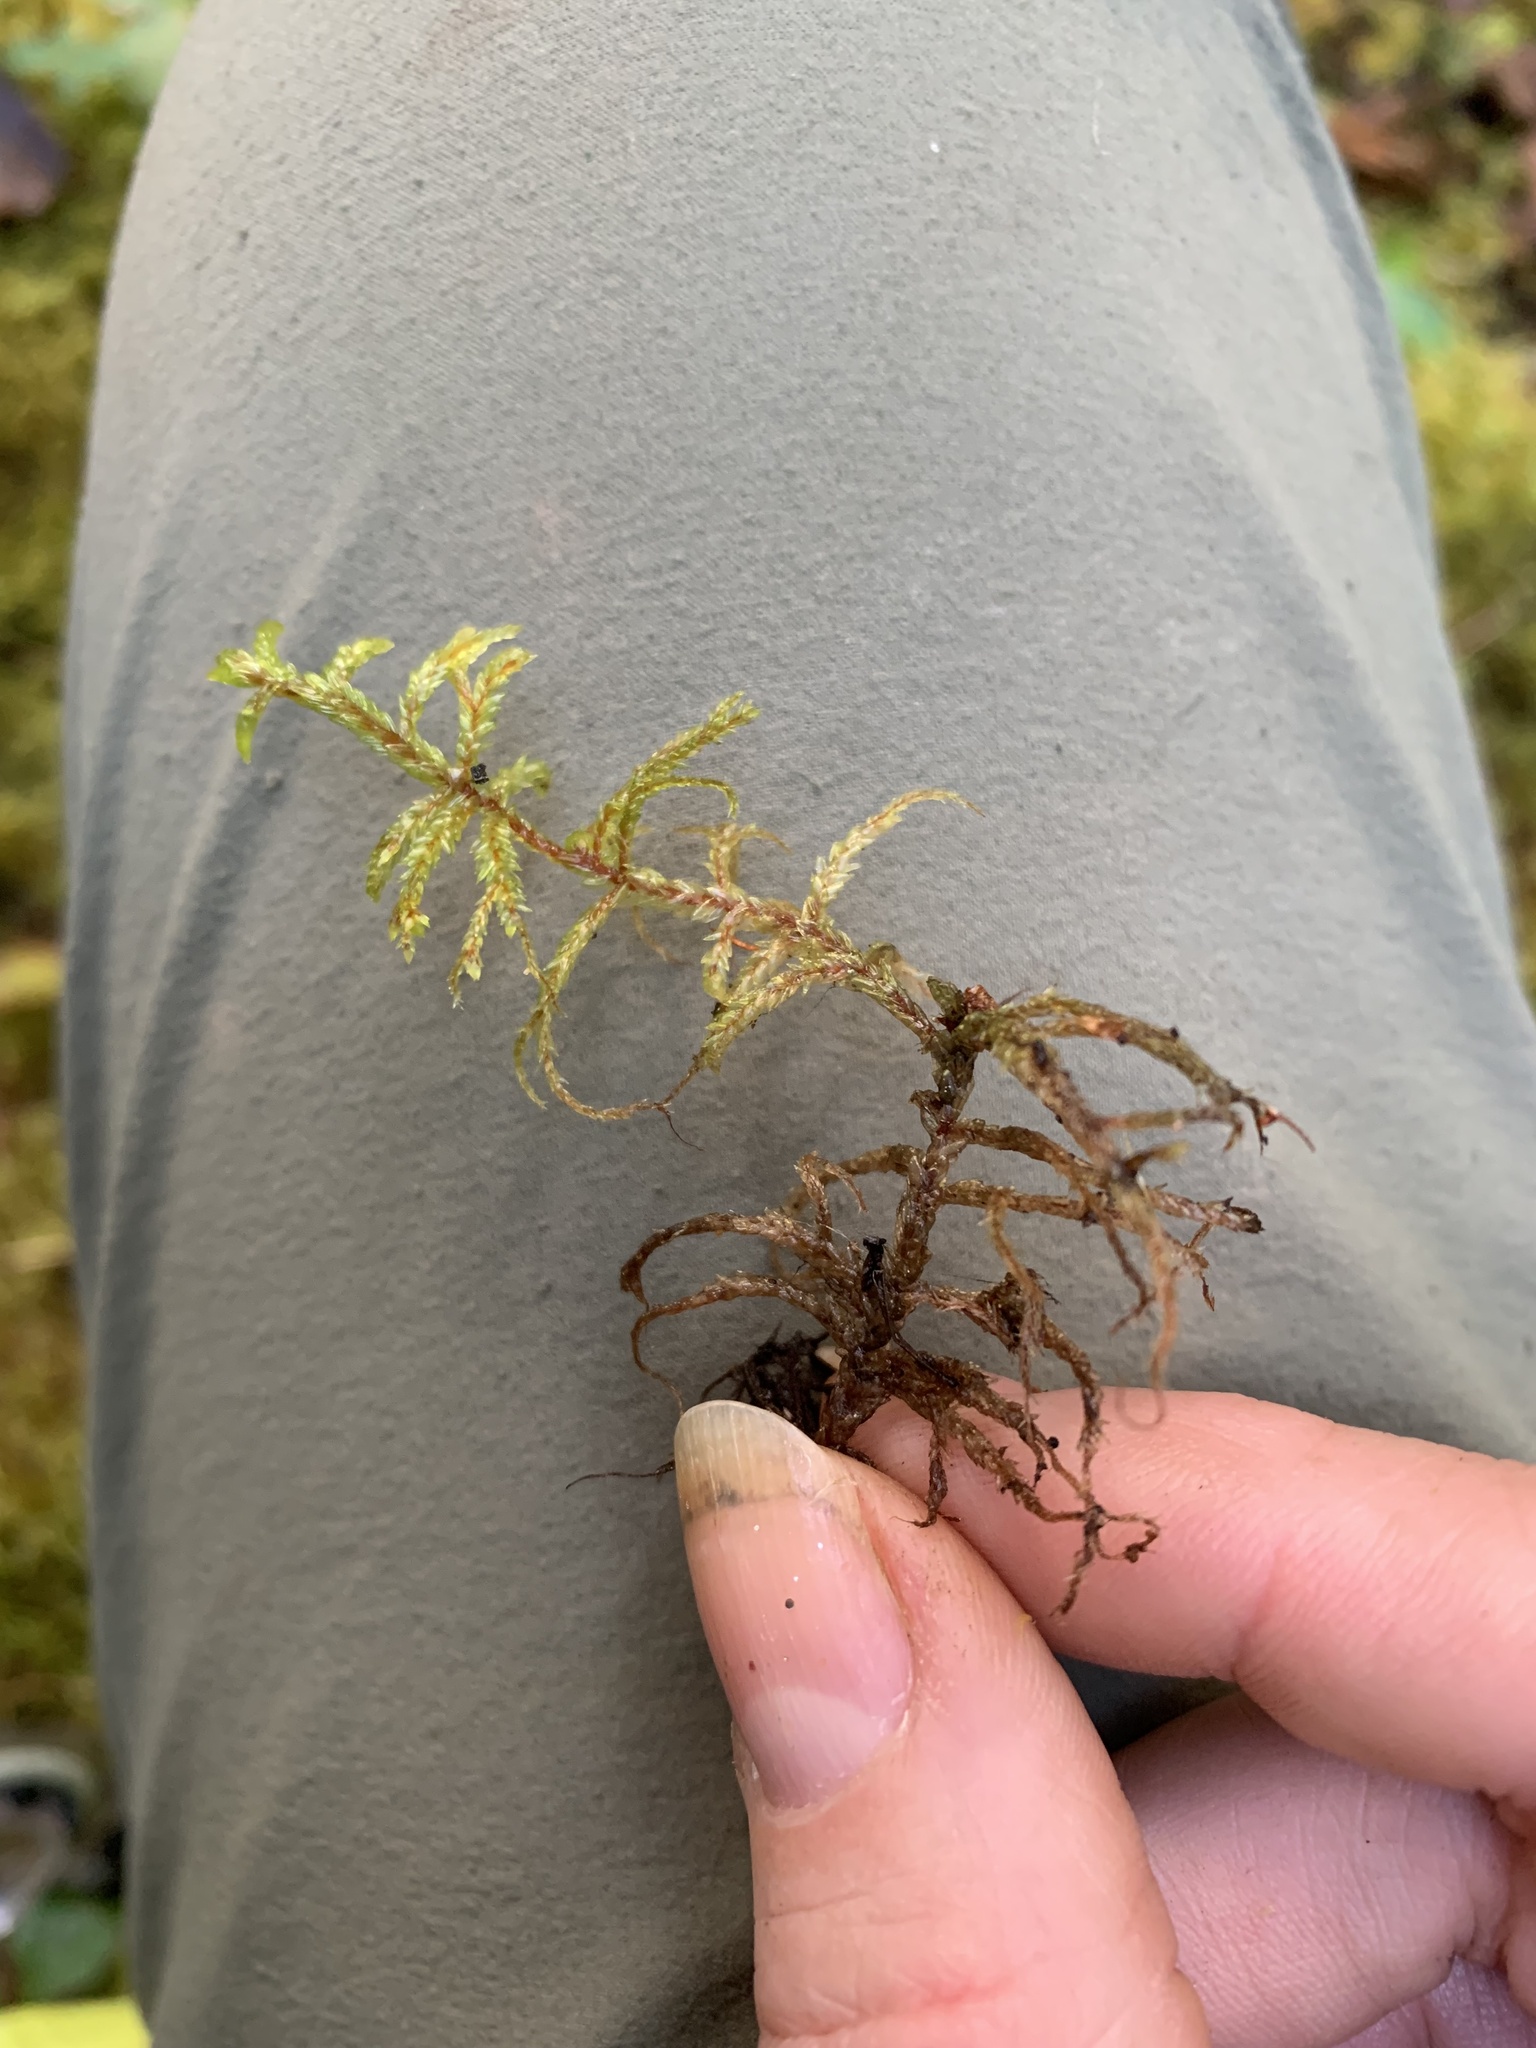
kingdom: Plantae
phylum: Bryophyta
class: Bryopsida
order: Hypnales
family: Hylocomiaceae
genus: Pleurozium
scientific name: Pleurozium schreberi
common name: Red-stemmed feather moss
